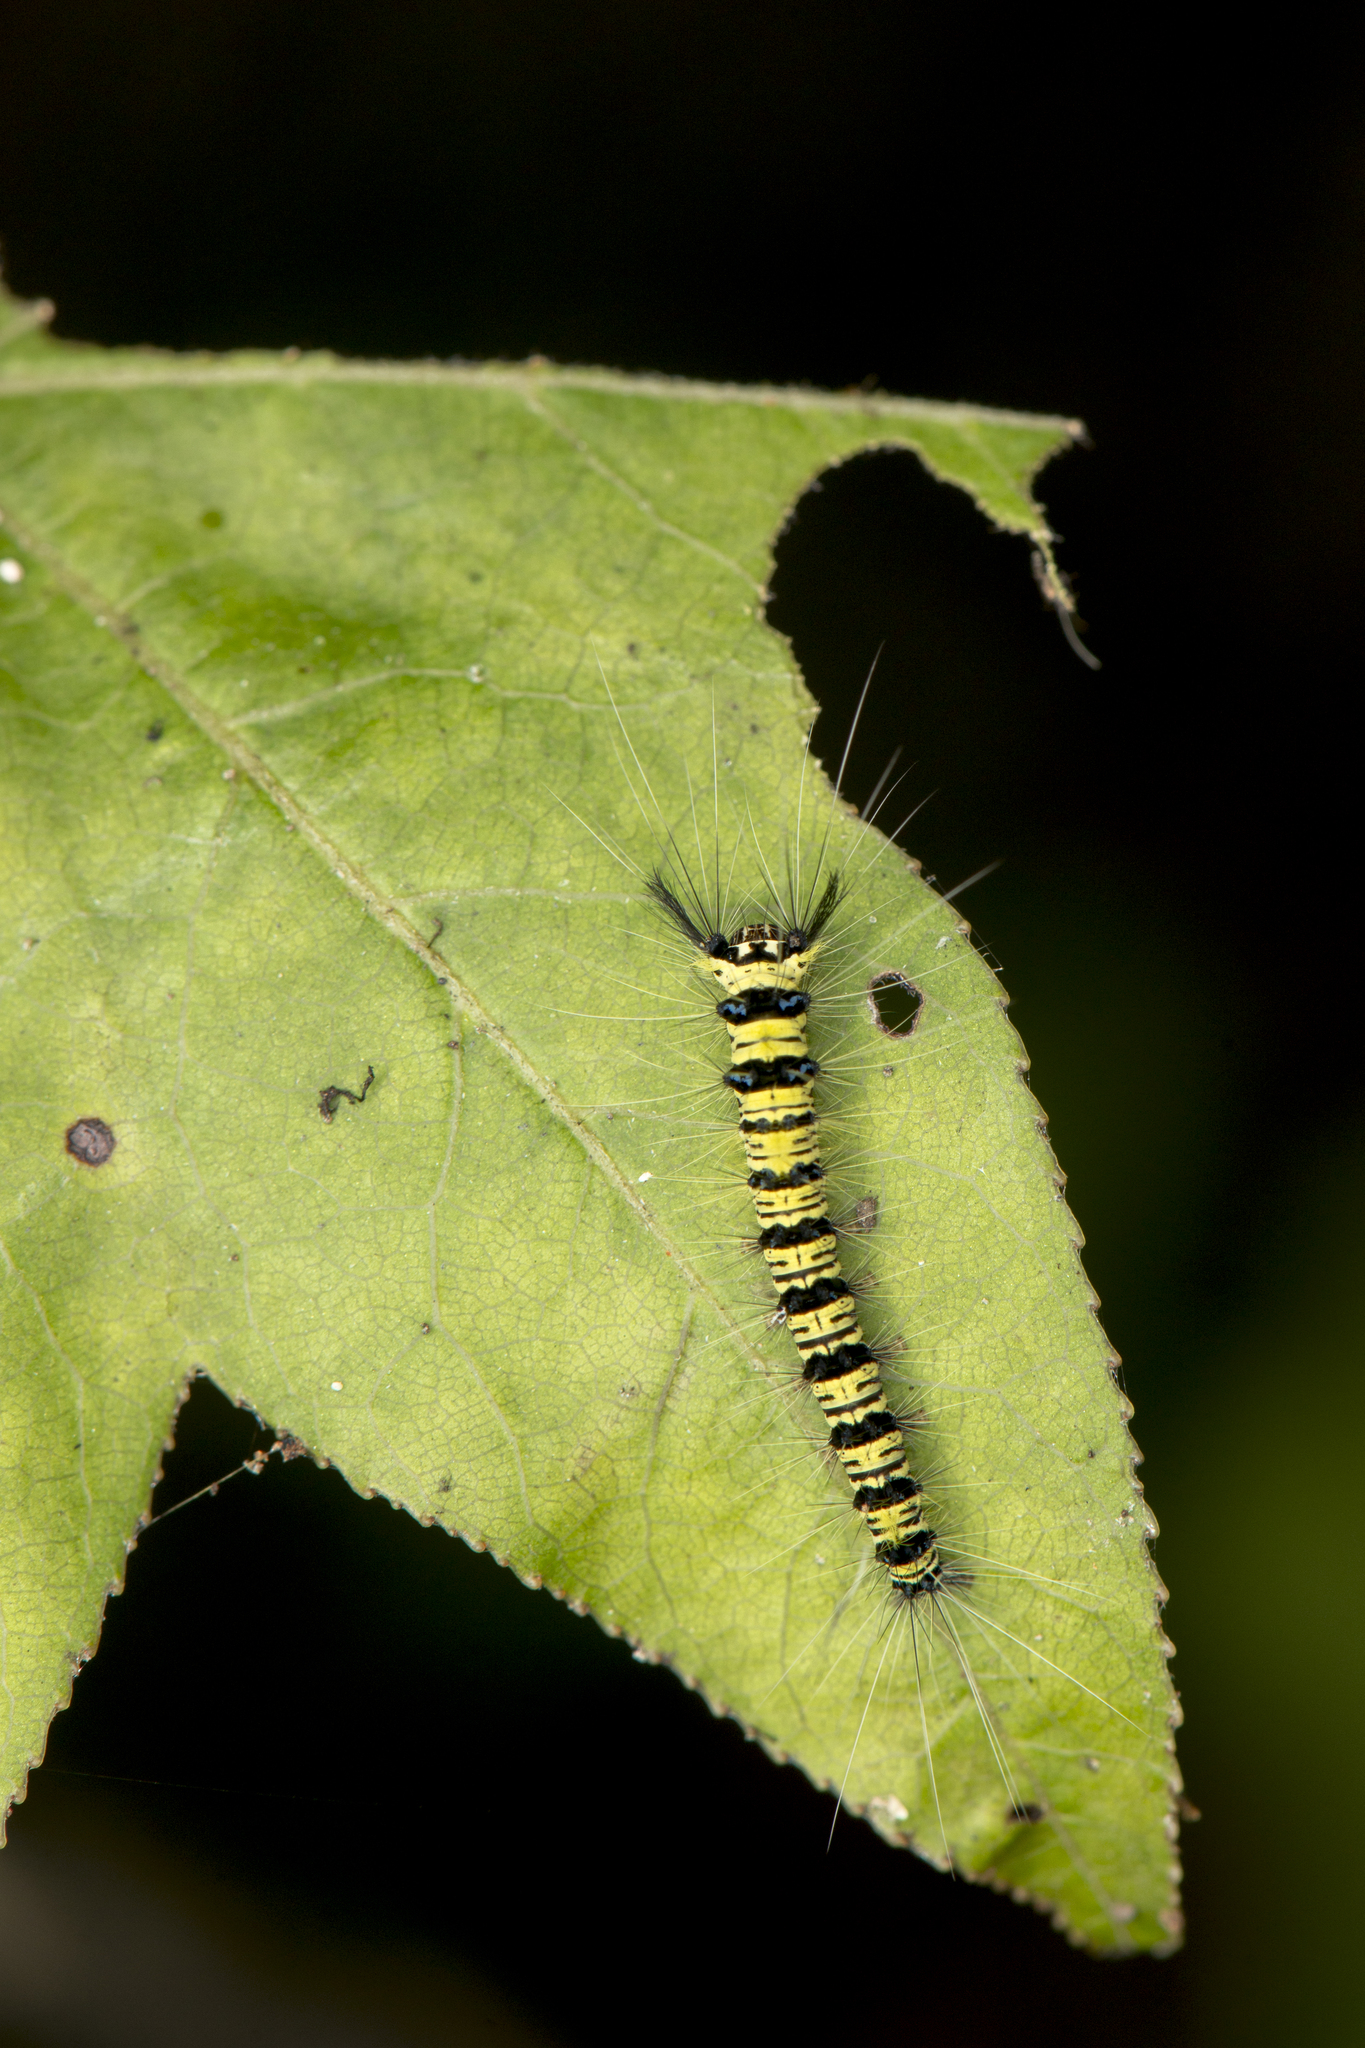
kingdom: Animalia
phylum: Arthropoda
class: Insecta
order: Lepidoptera
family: Lasiocampidae
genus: Trabala
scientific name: Trabala vishnou
